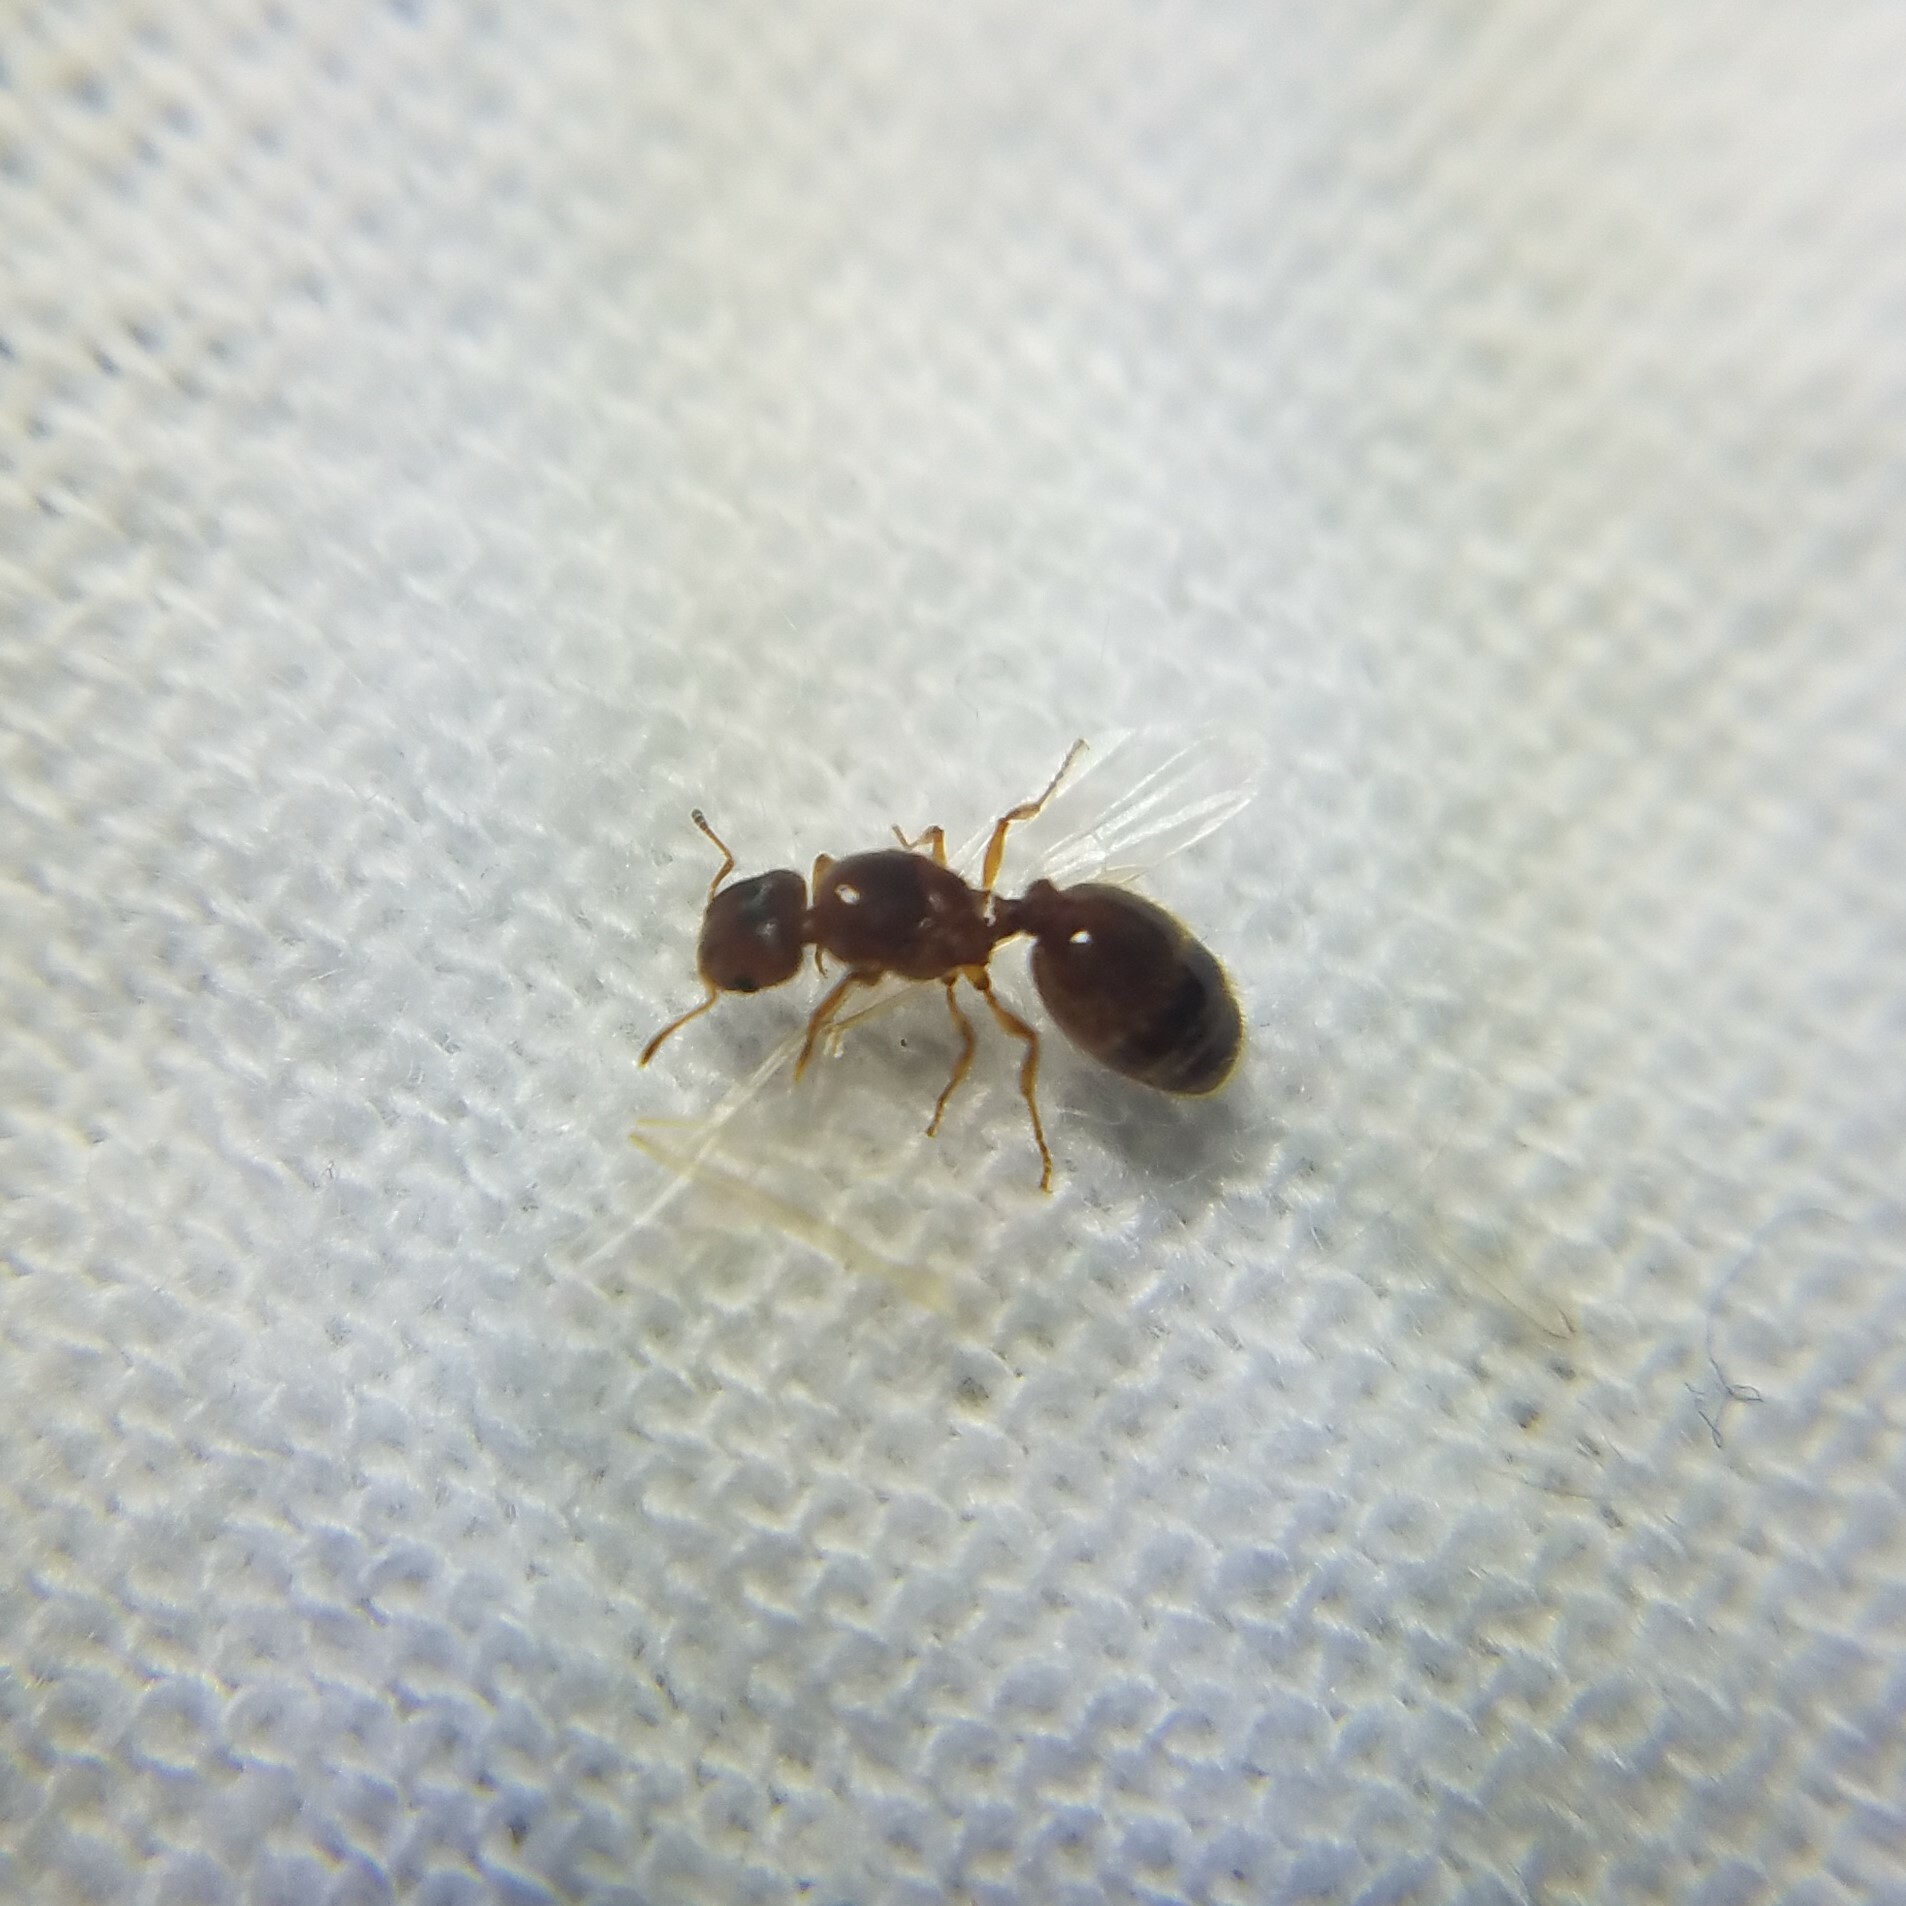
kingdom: Animalia
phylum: Arthropoda
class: Insecta
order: Hymenoptera
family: Formicidae
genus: Pheidole
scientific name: Pheidole bicarinata
